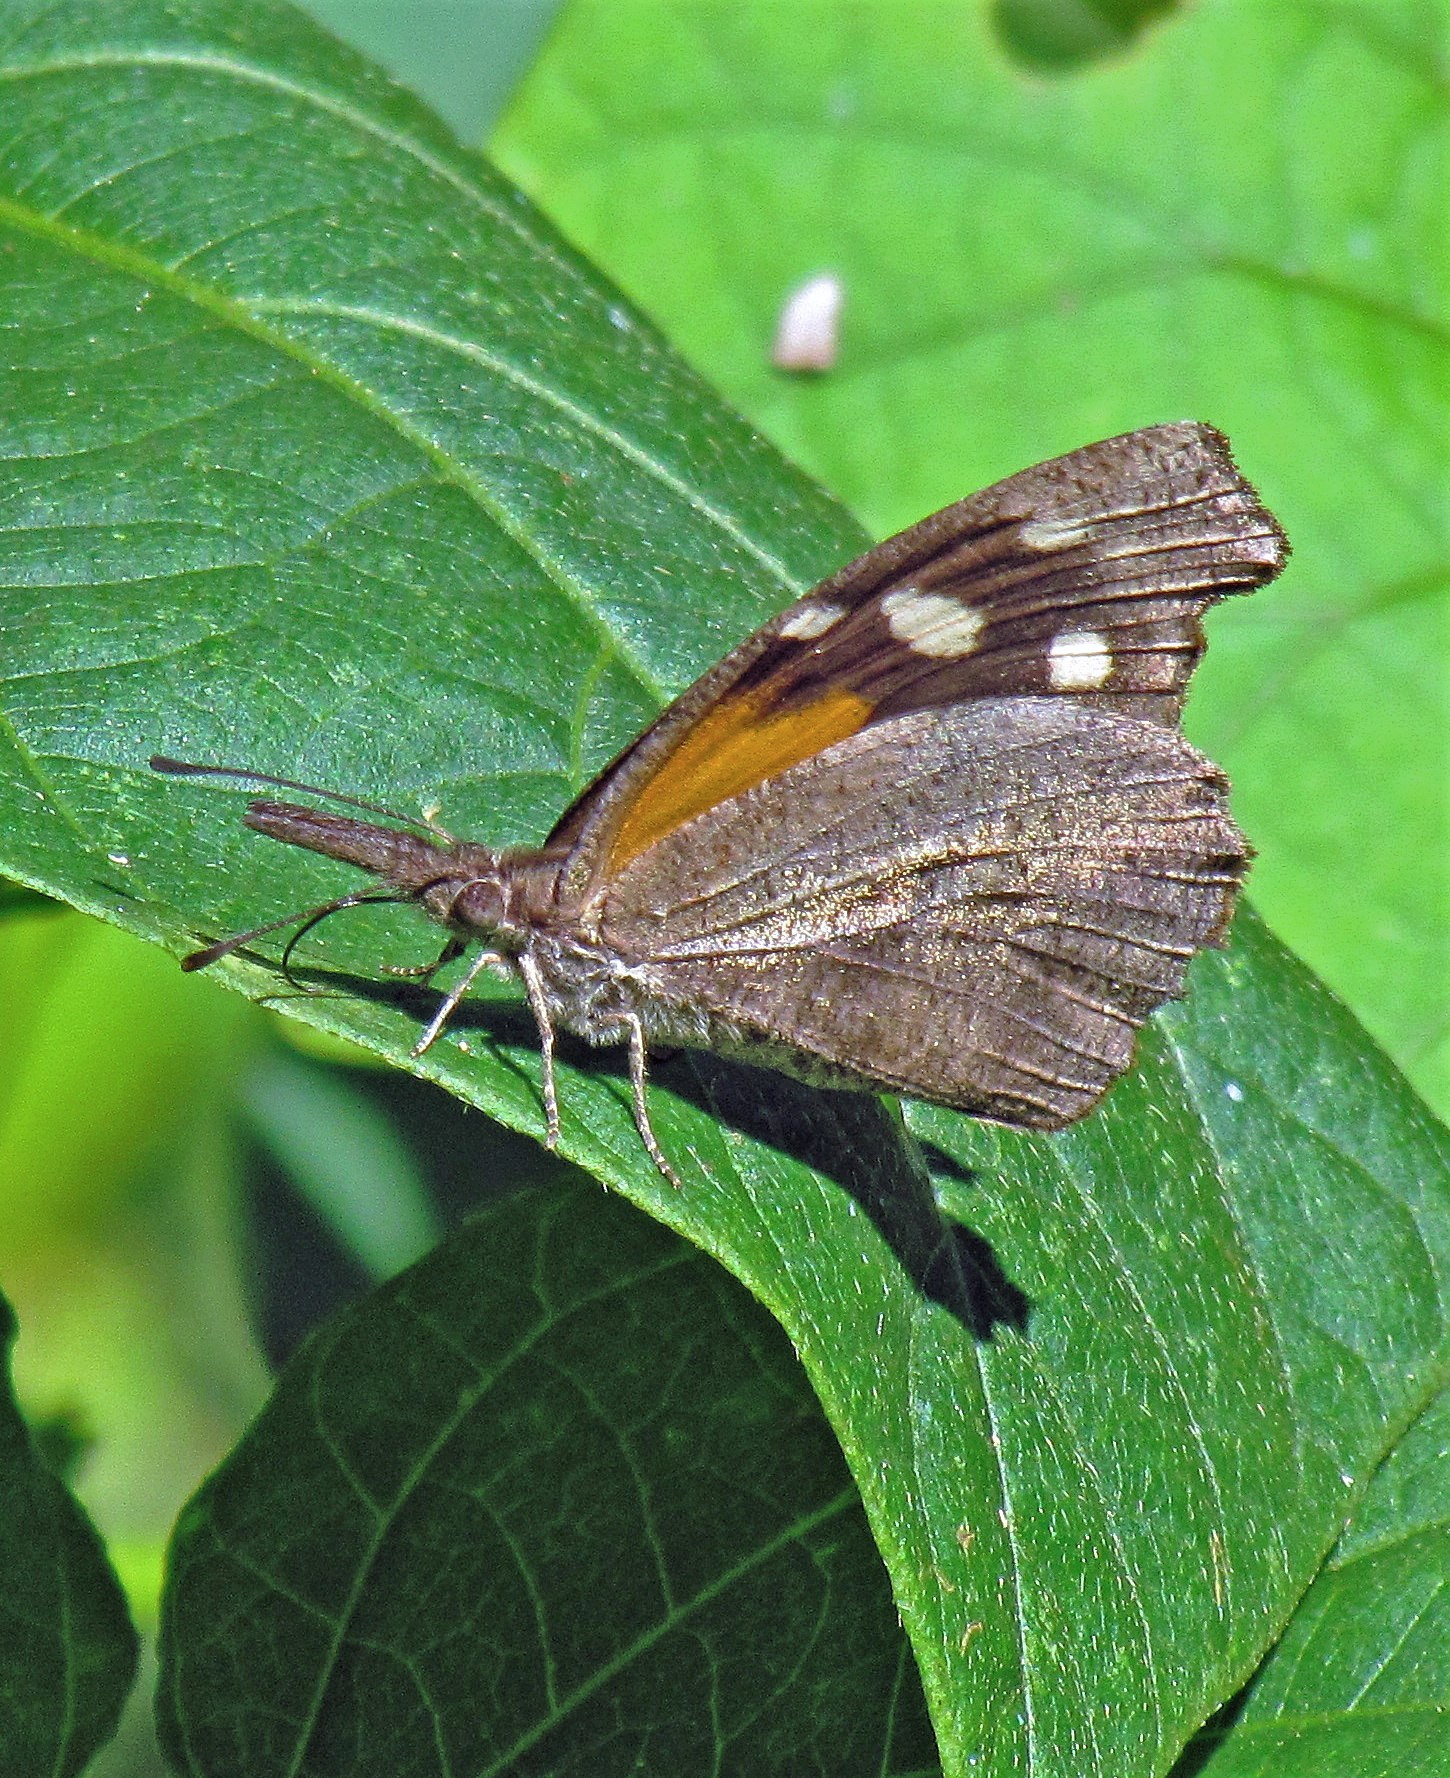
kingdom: Animalia
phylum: Arthropoda
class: Insecta
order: Lepidoptera
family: Nymphalidae
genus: Libytheana
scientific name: Libytheana carinenta
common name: American snout
